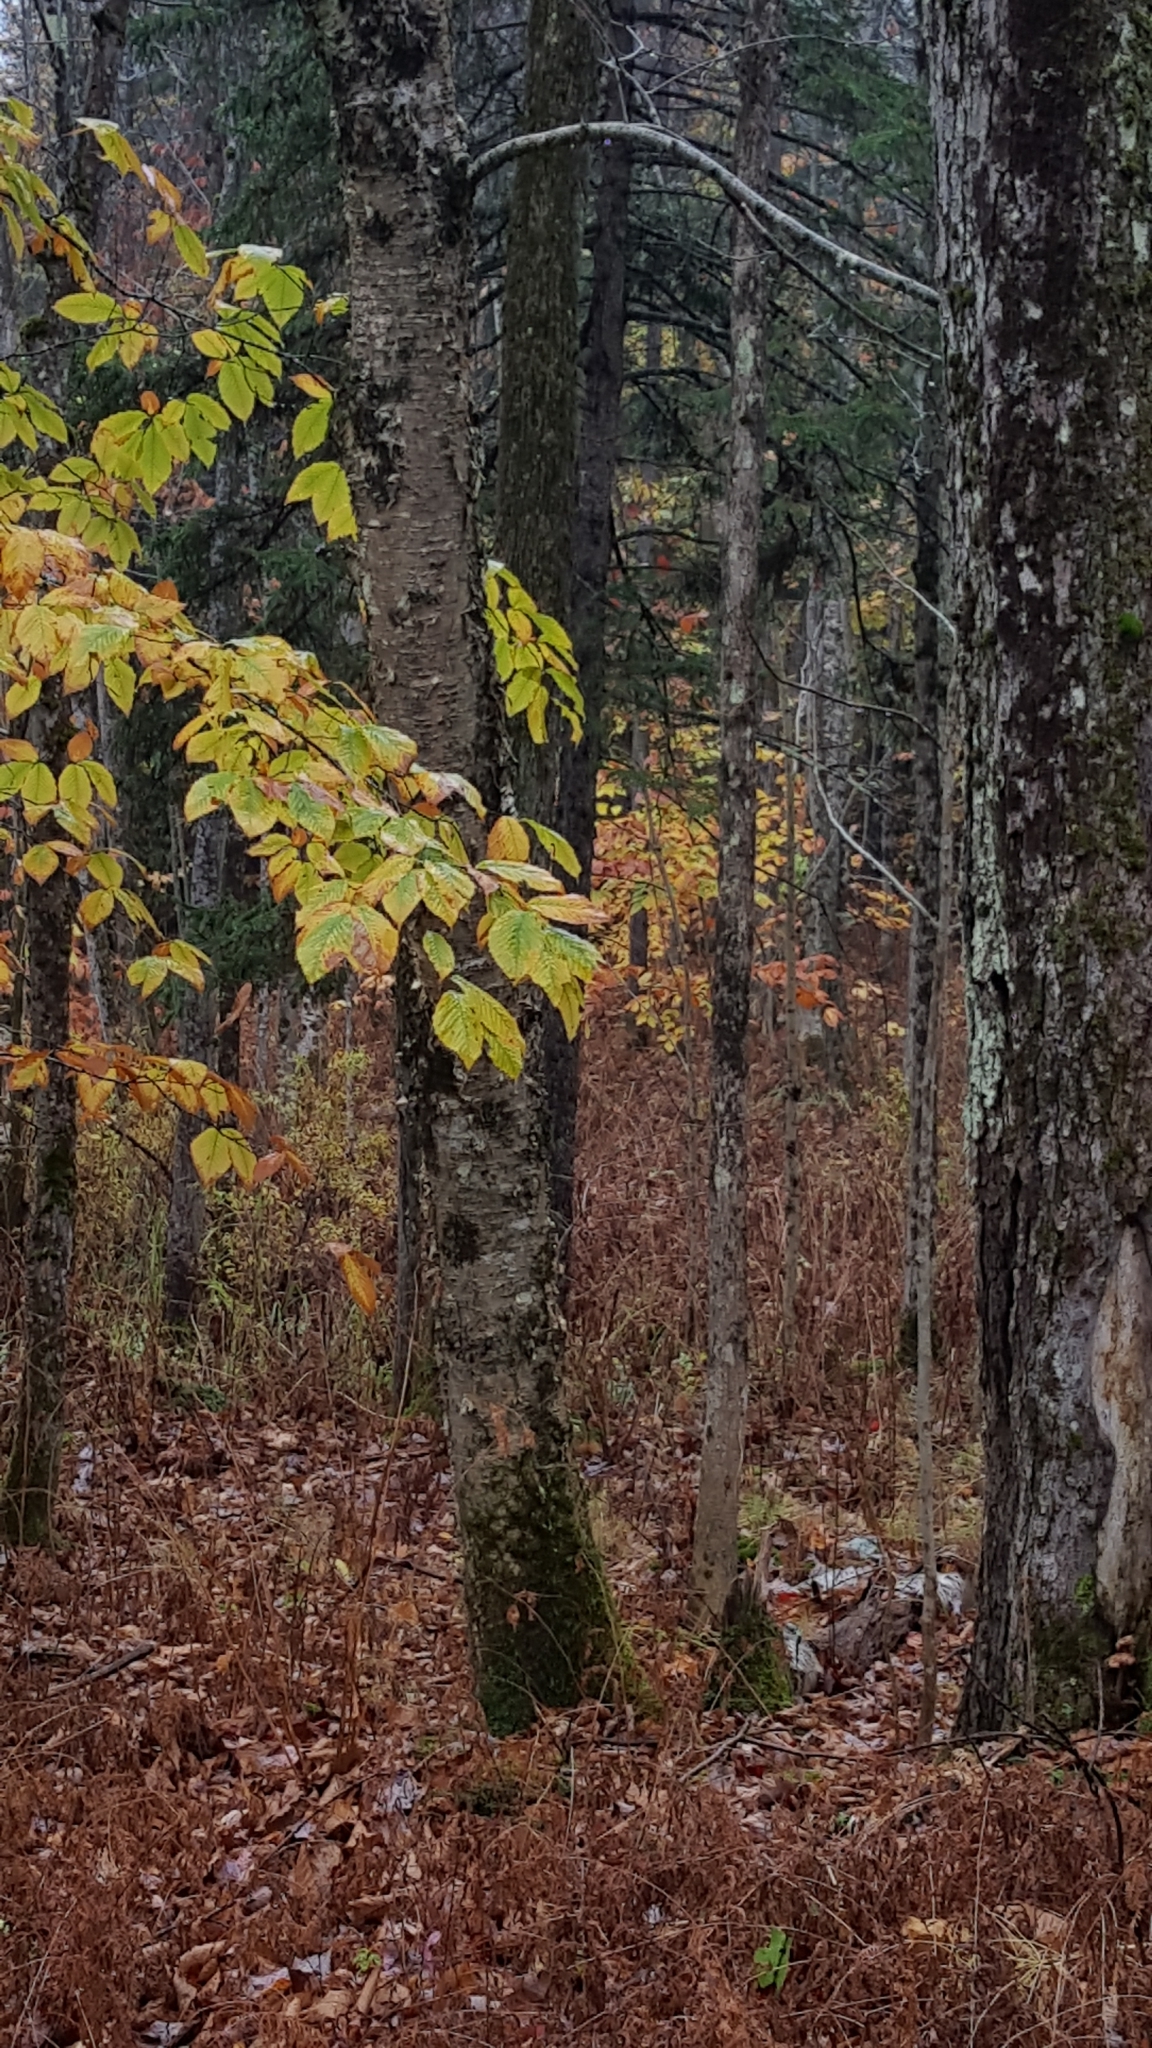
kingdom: Plantae
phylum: Tracheophyta
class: Magnoliopsida
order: Fagales
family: Betulaceae
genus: Betula
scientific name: Betula alleghaniensis
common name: Yellow birch
